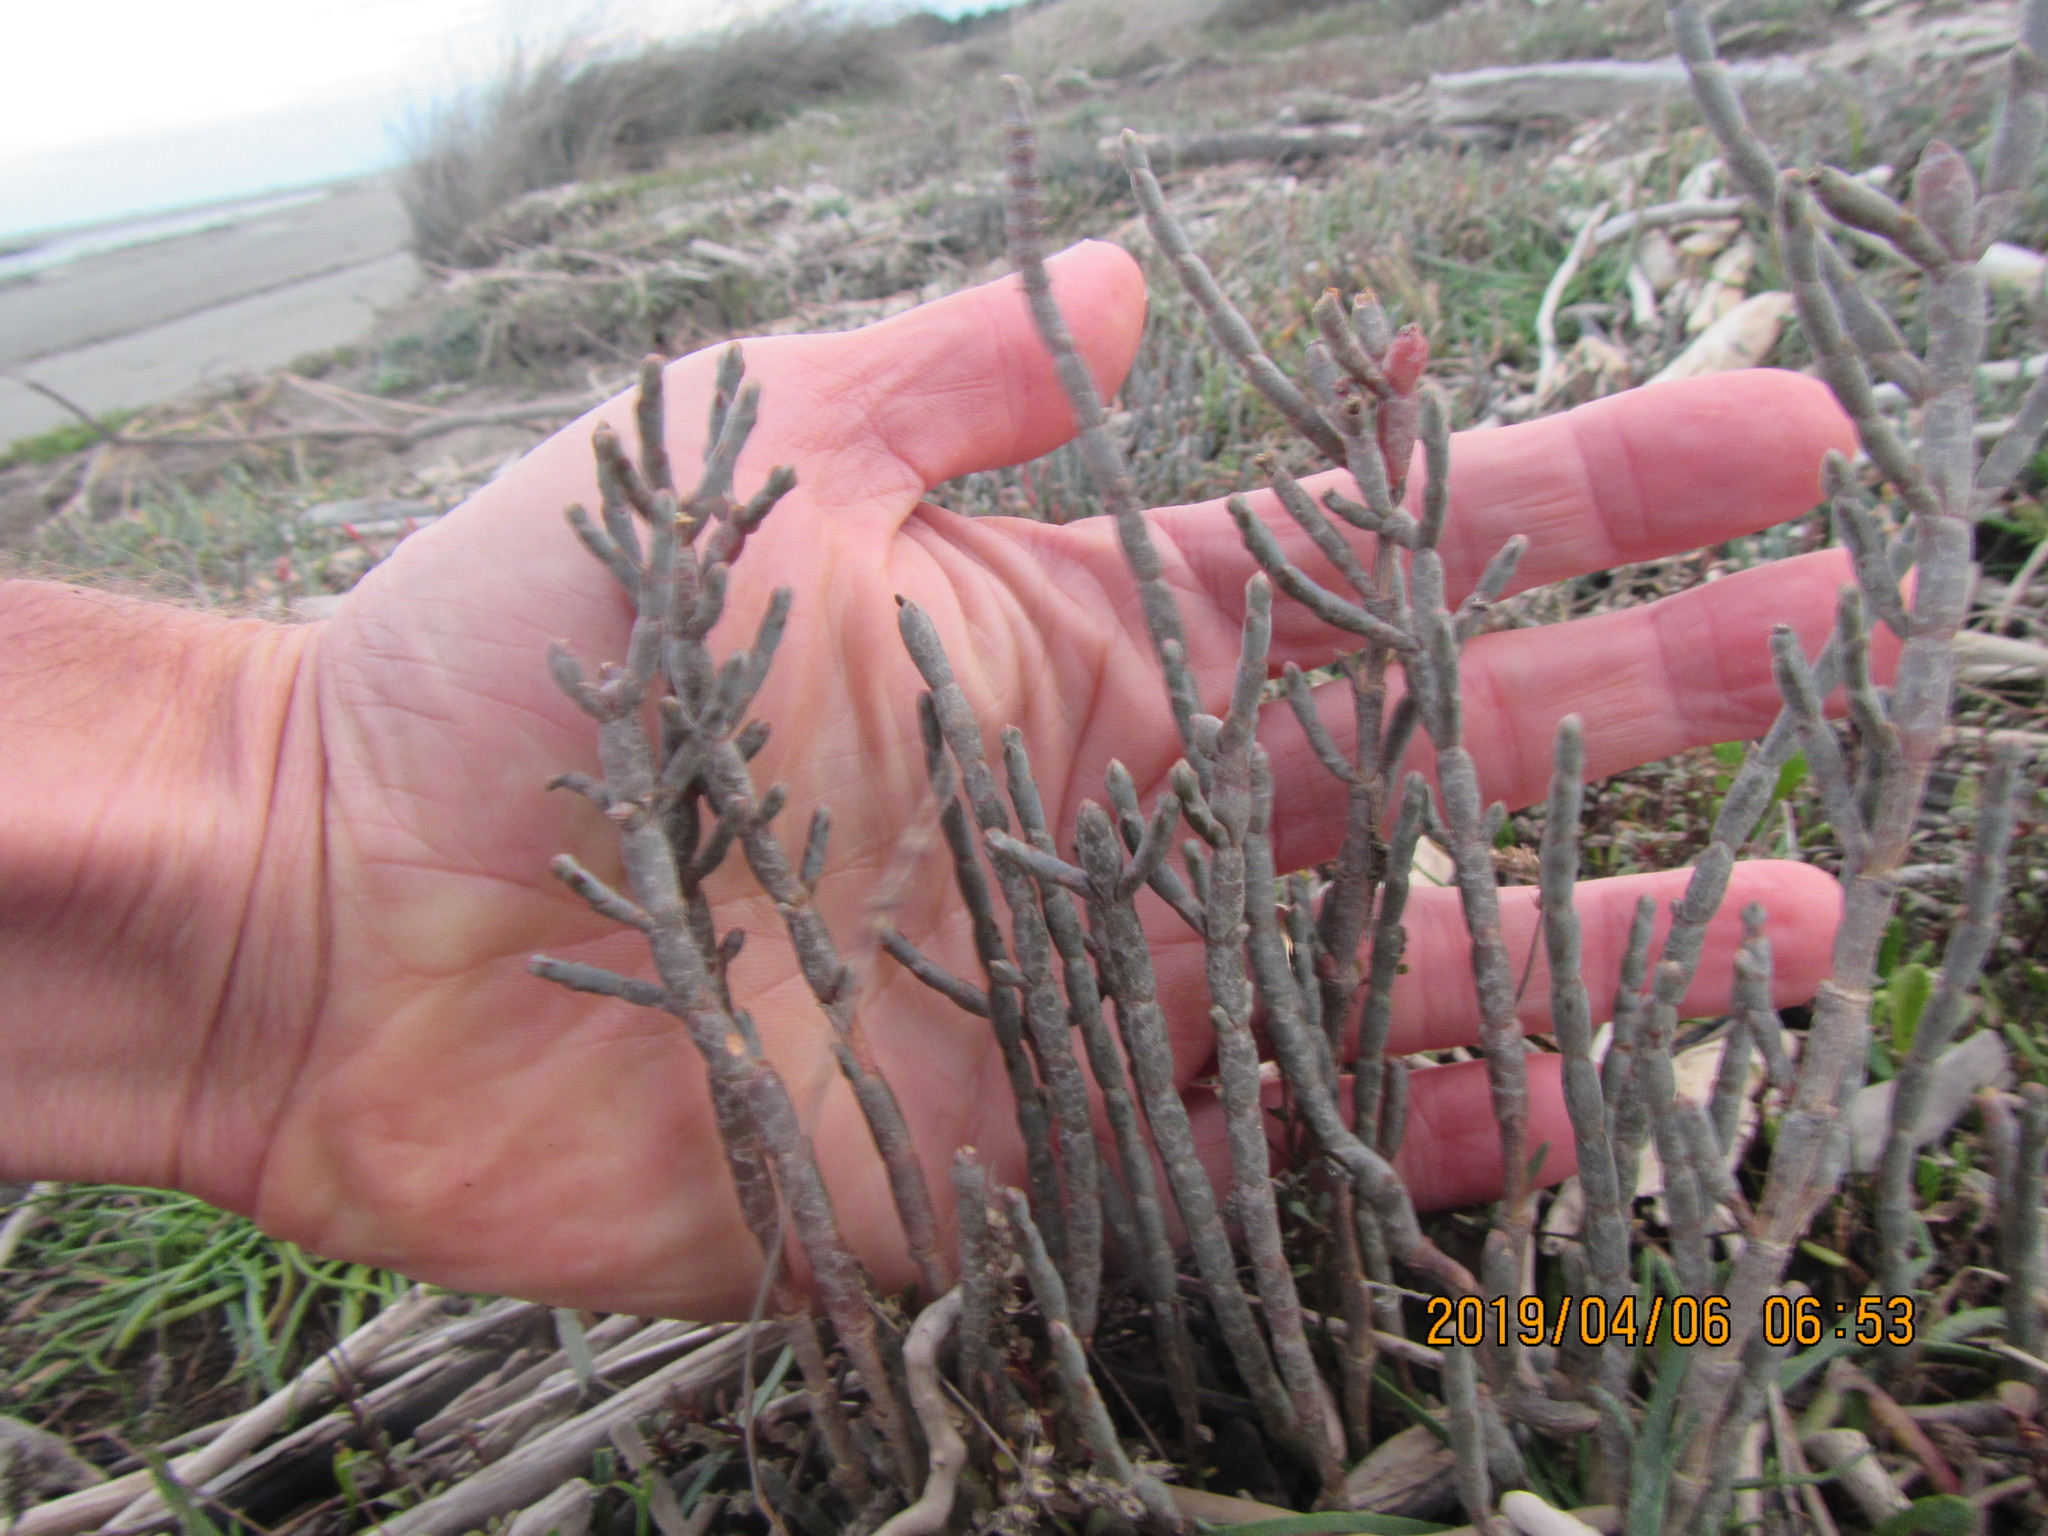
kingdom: Plantae
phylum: Tracheophyta
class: Magnoliopsida
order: Caryophyllales
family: Amaranthaceae
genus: Salicornia
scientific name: Salicornia quinqueflora
